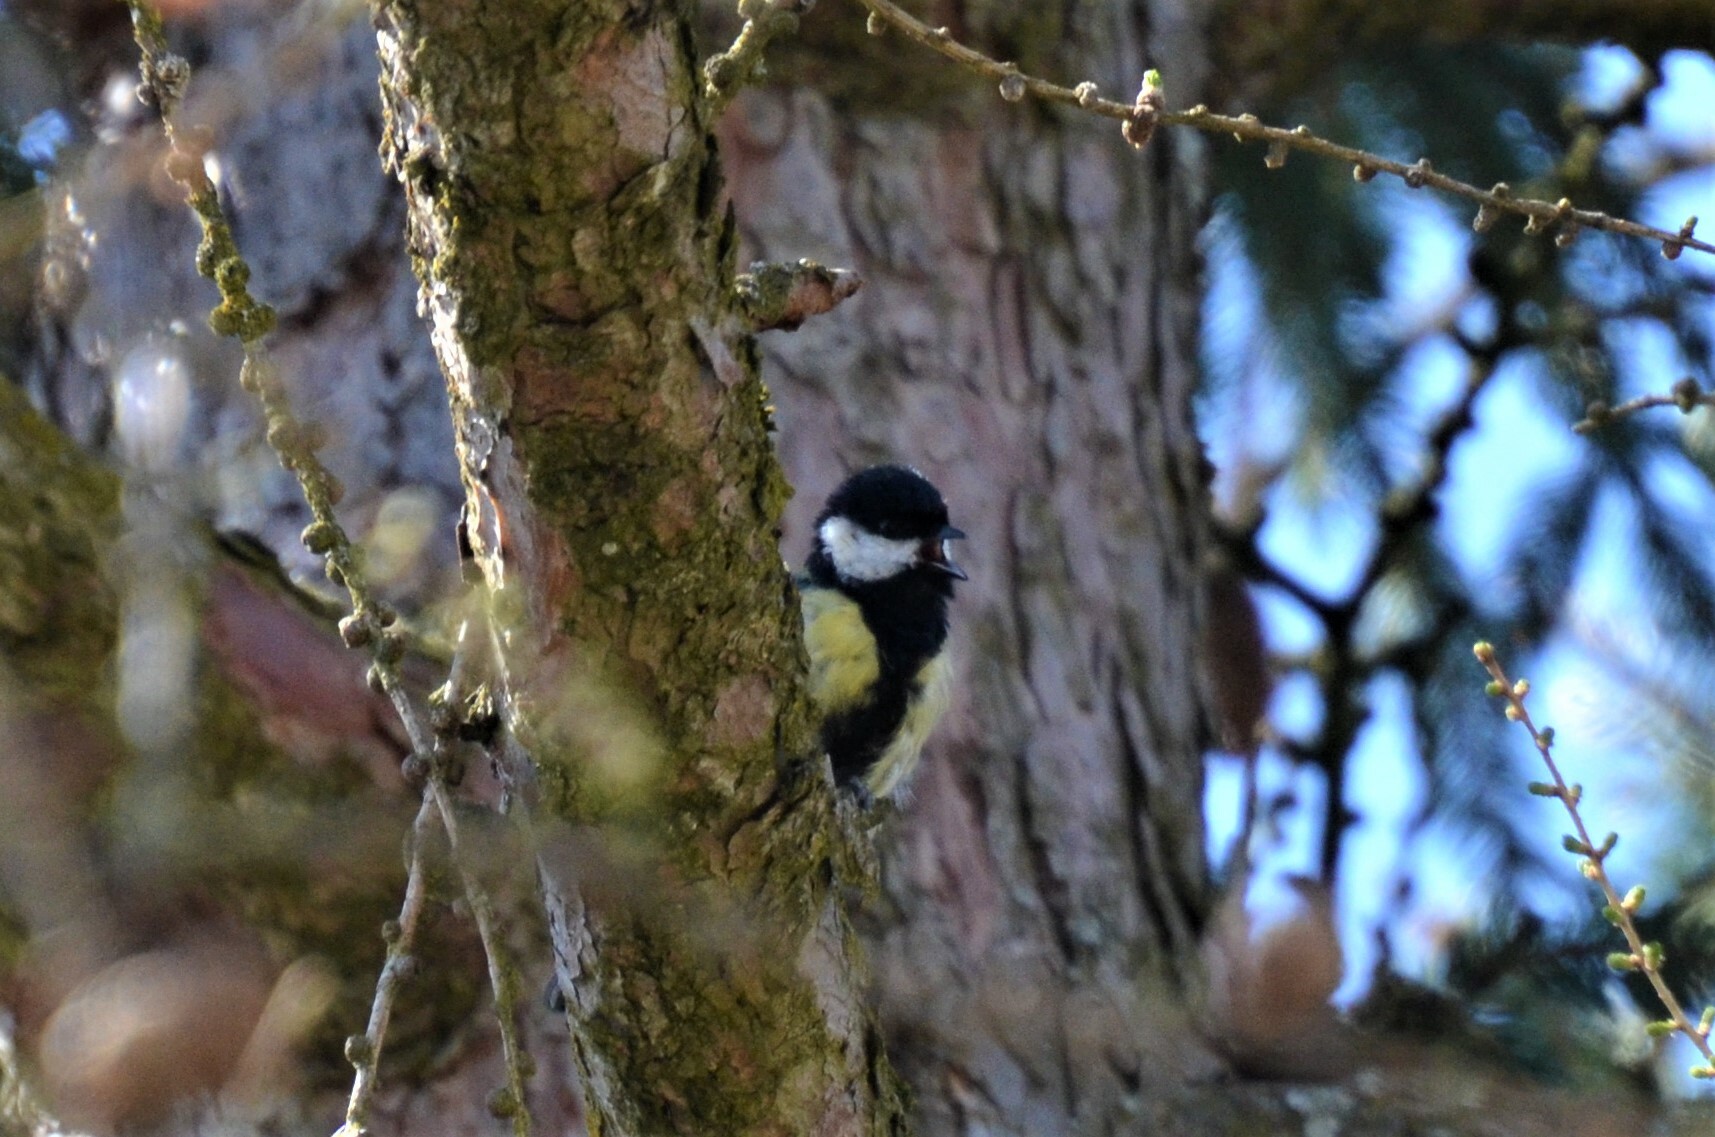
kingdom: Animalia
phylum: Chordata
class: Aves
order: Passeriformes
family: Paridae
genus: Parus
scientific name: Parus major
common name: Great tit
